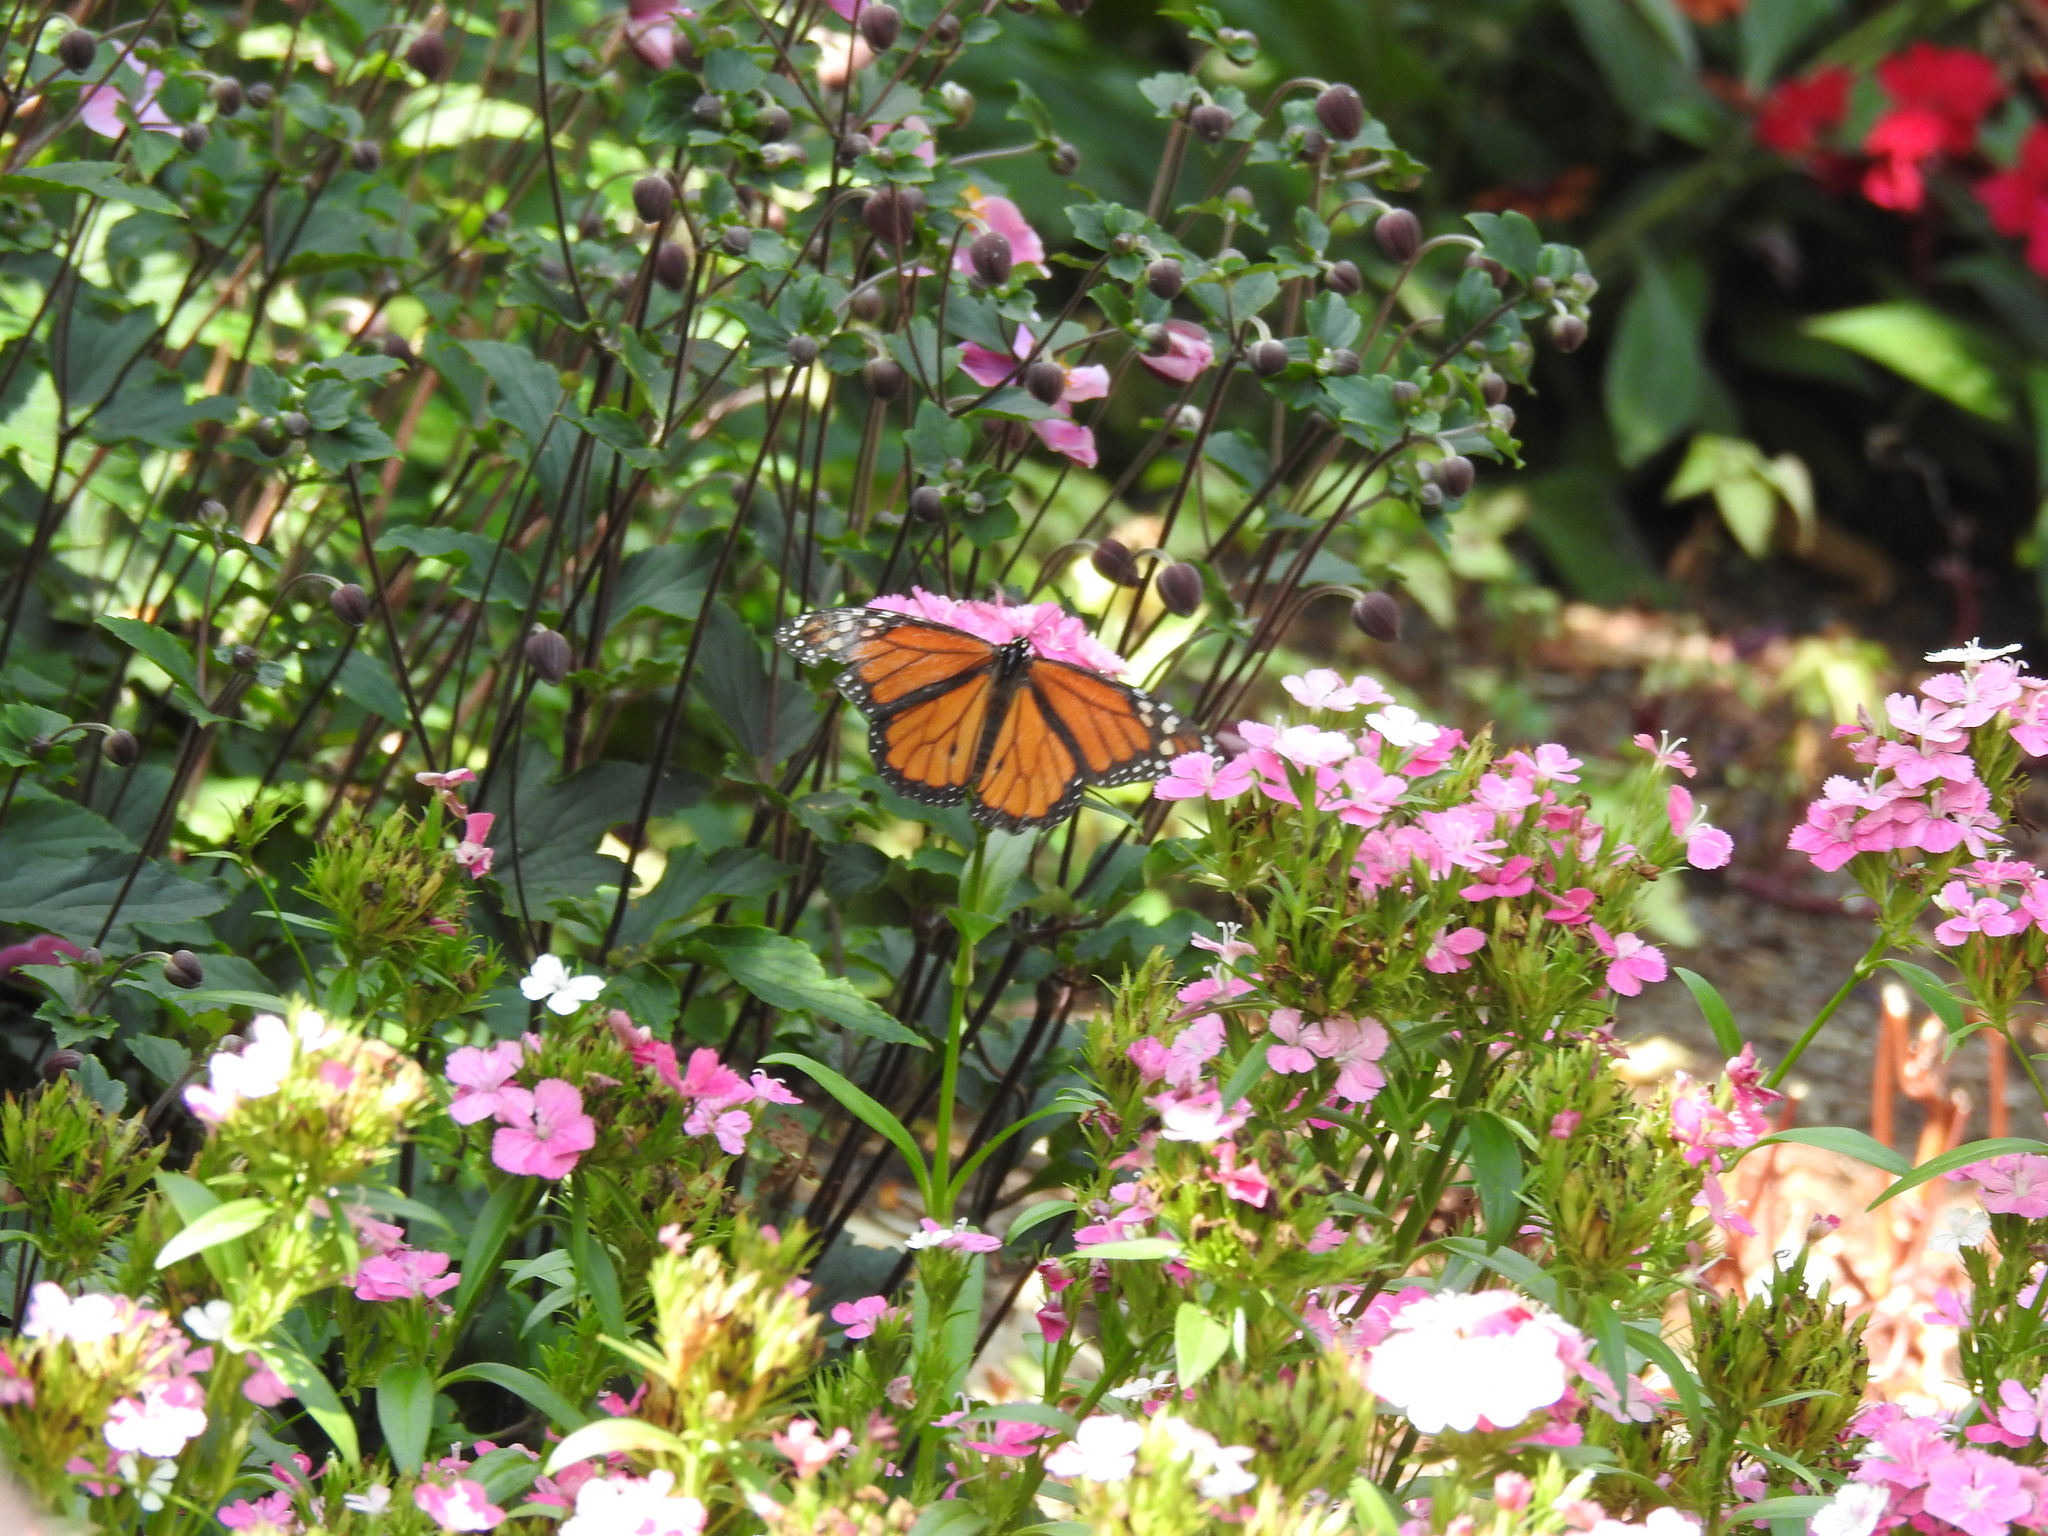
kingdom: Animalia
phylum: Arthropoda
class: Insecta
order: Lepidoptera
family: Nymphalidae
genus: Danaus
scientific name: Danaus plexippus
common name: Monarch
